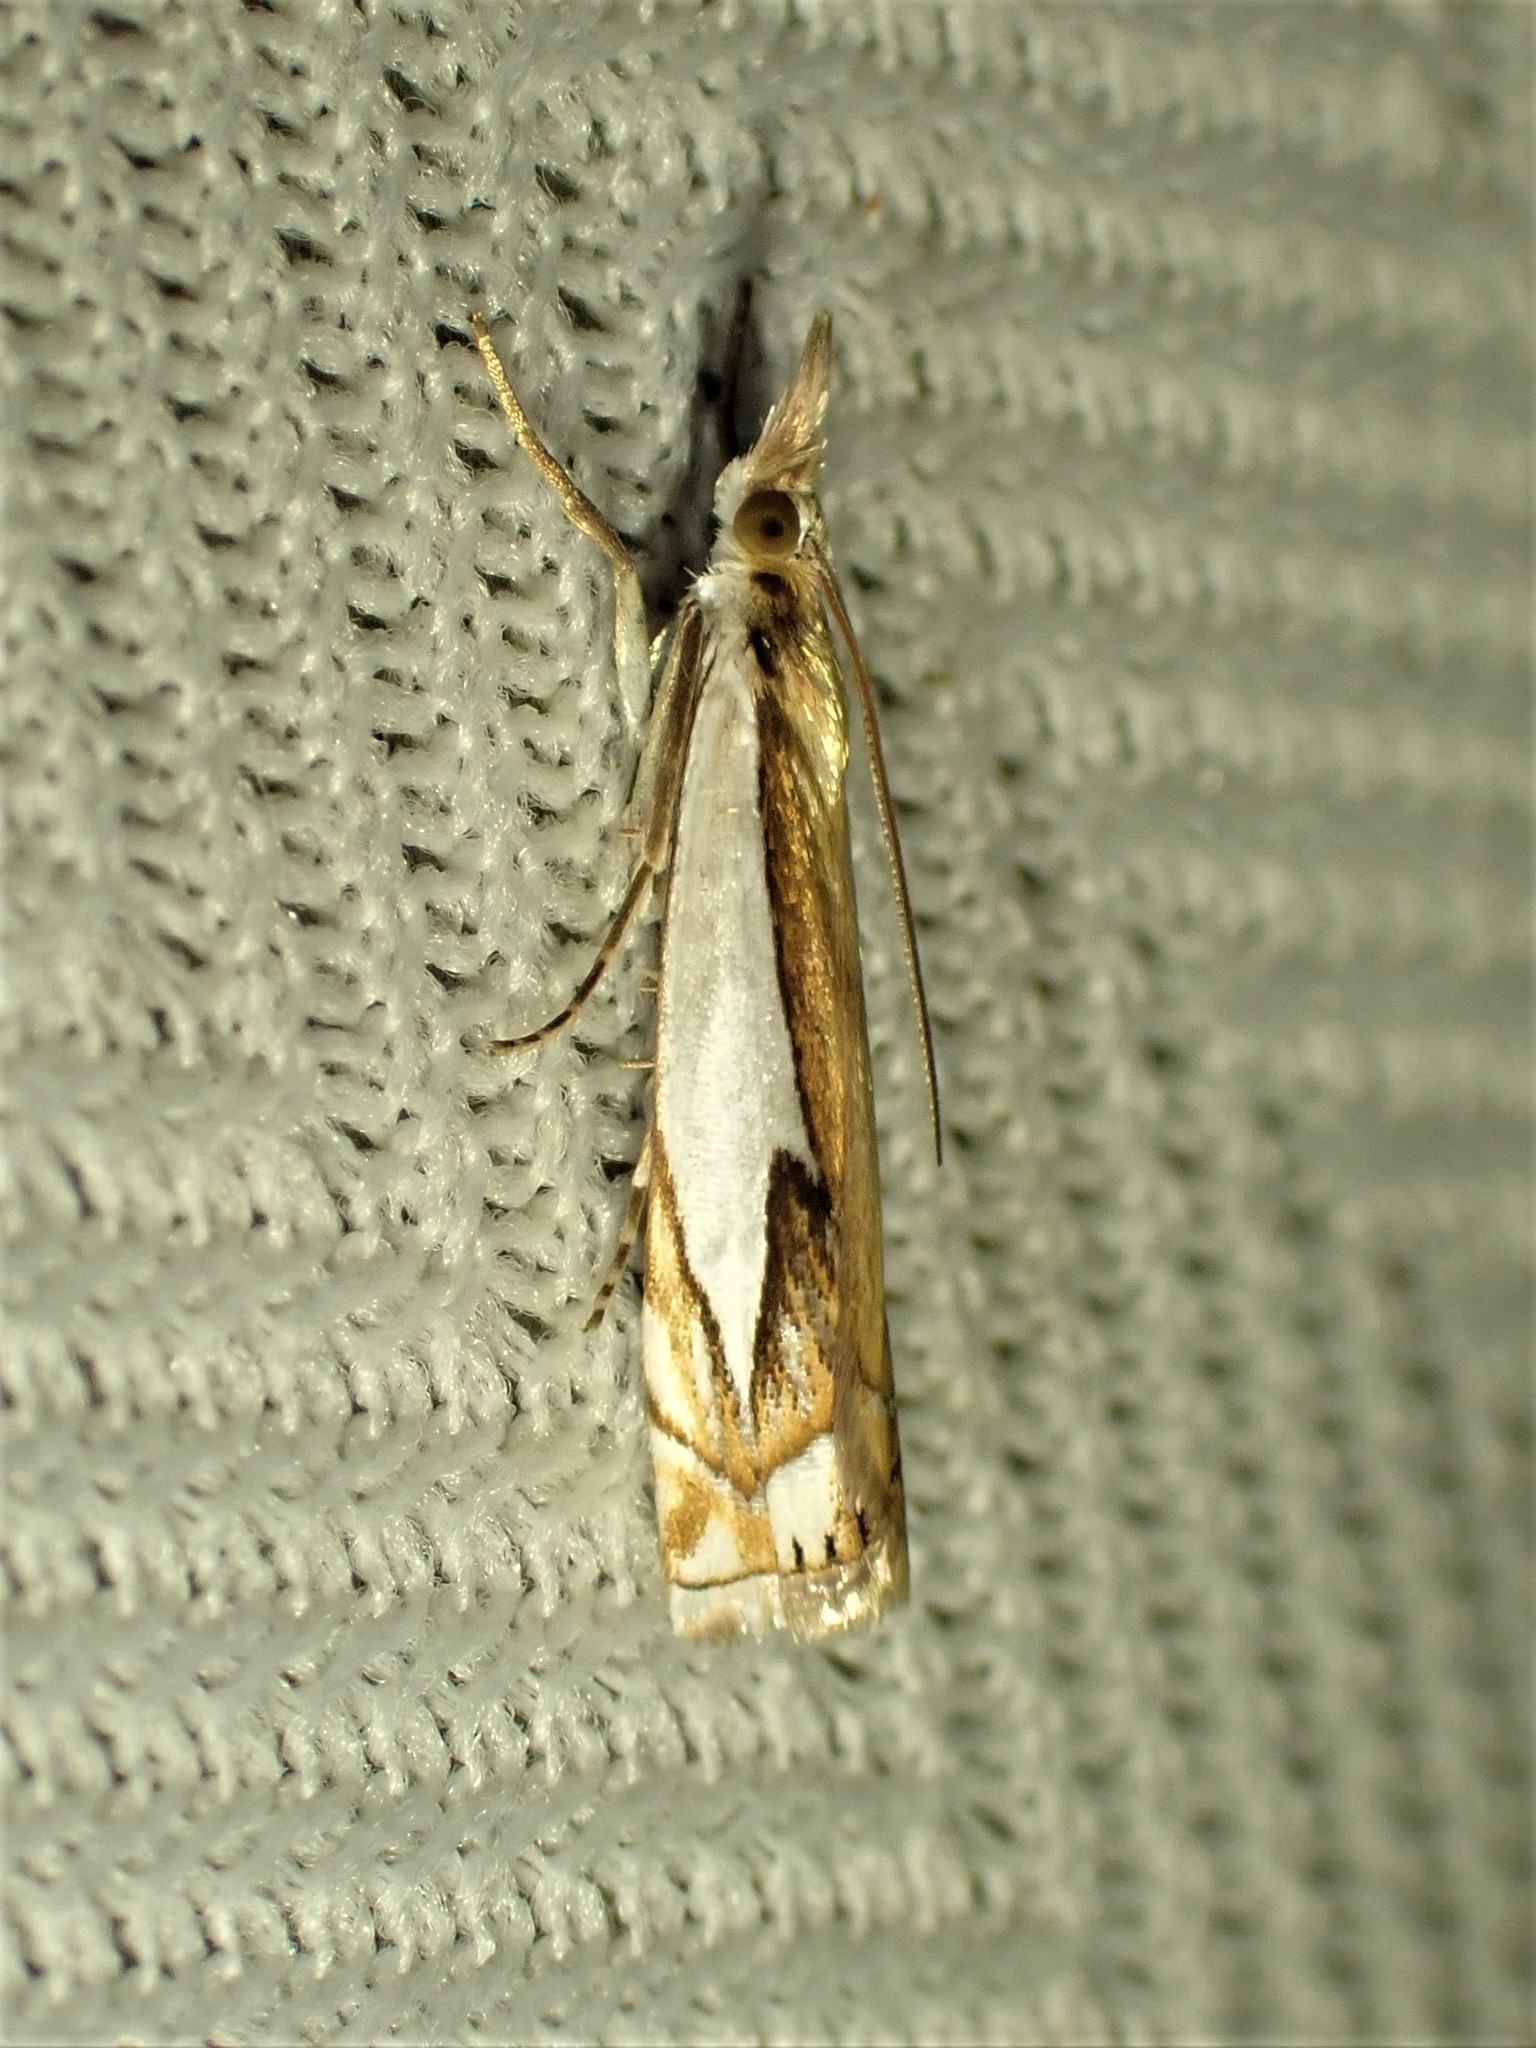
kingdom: Animalia
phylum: Arthropoda
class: Insecta
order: Lepidoptera
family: Crambidae
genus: Crambus
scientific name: Crambus bidens
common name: Forked grass-veneer
